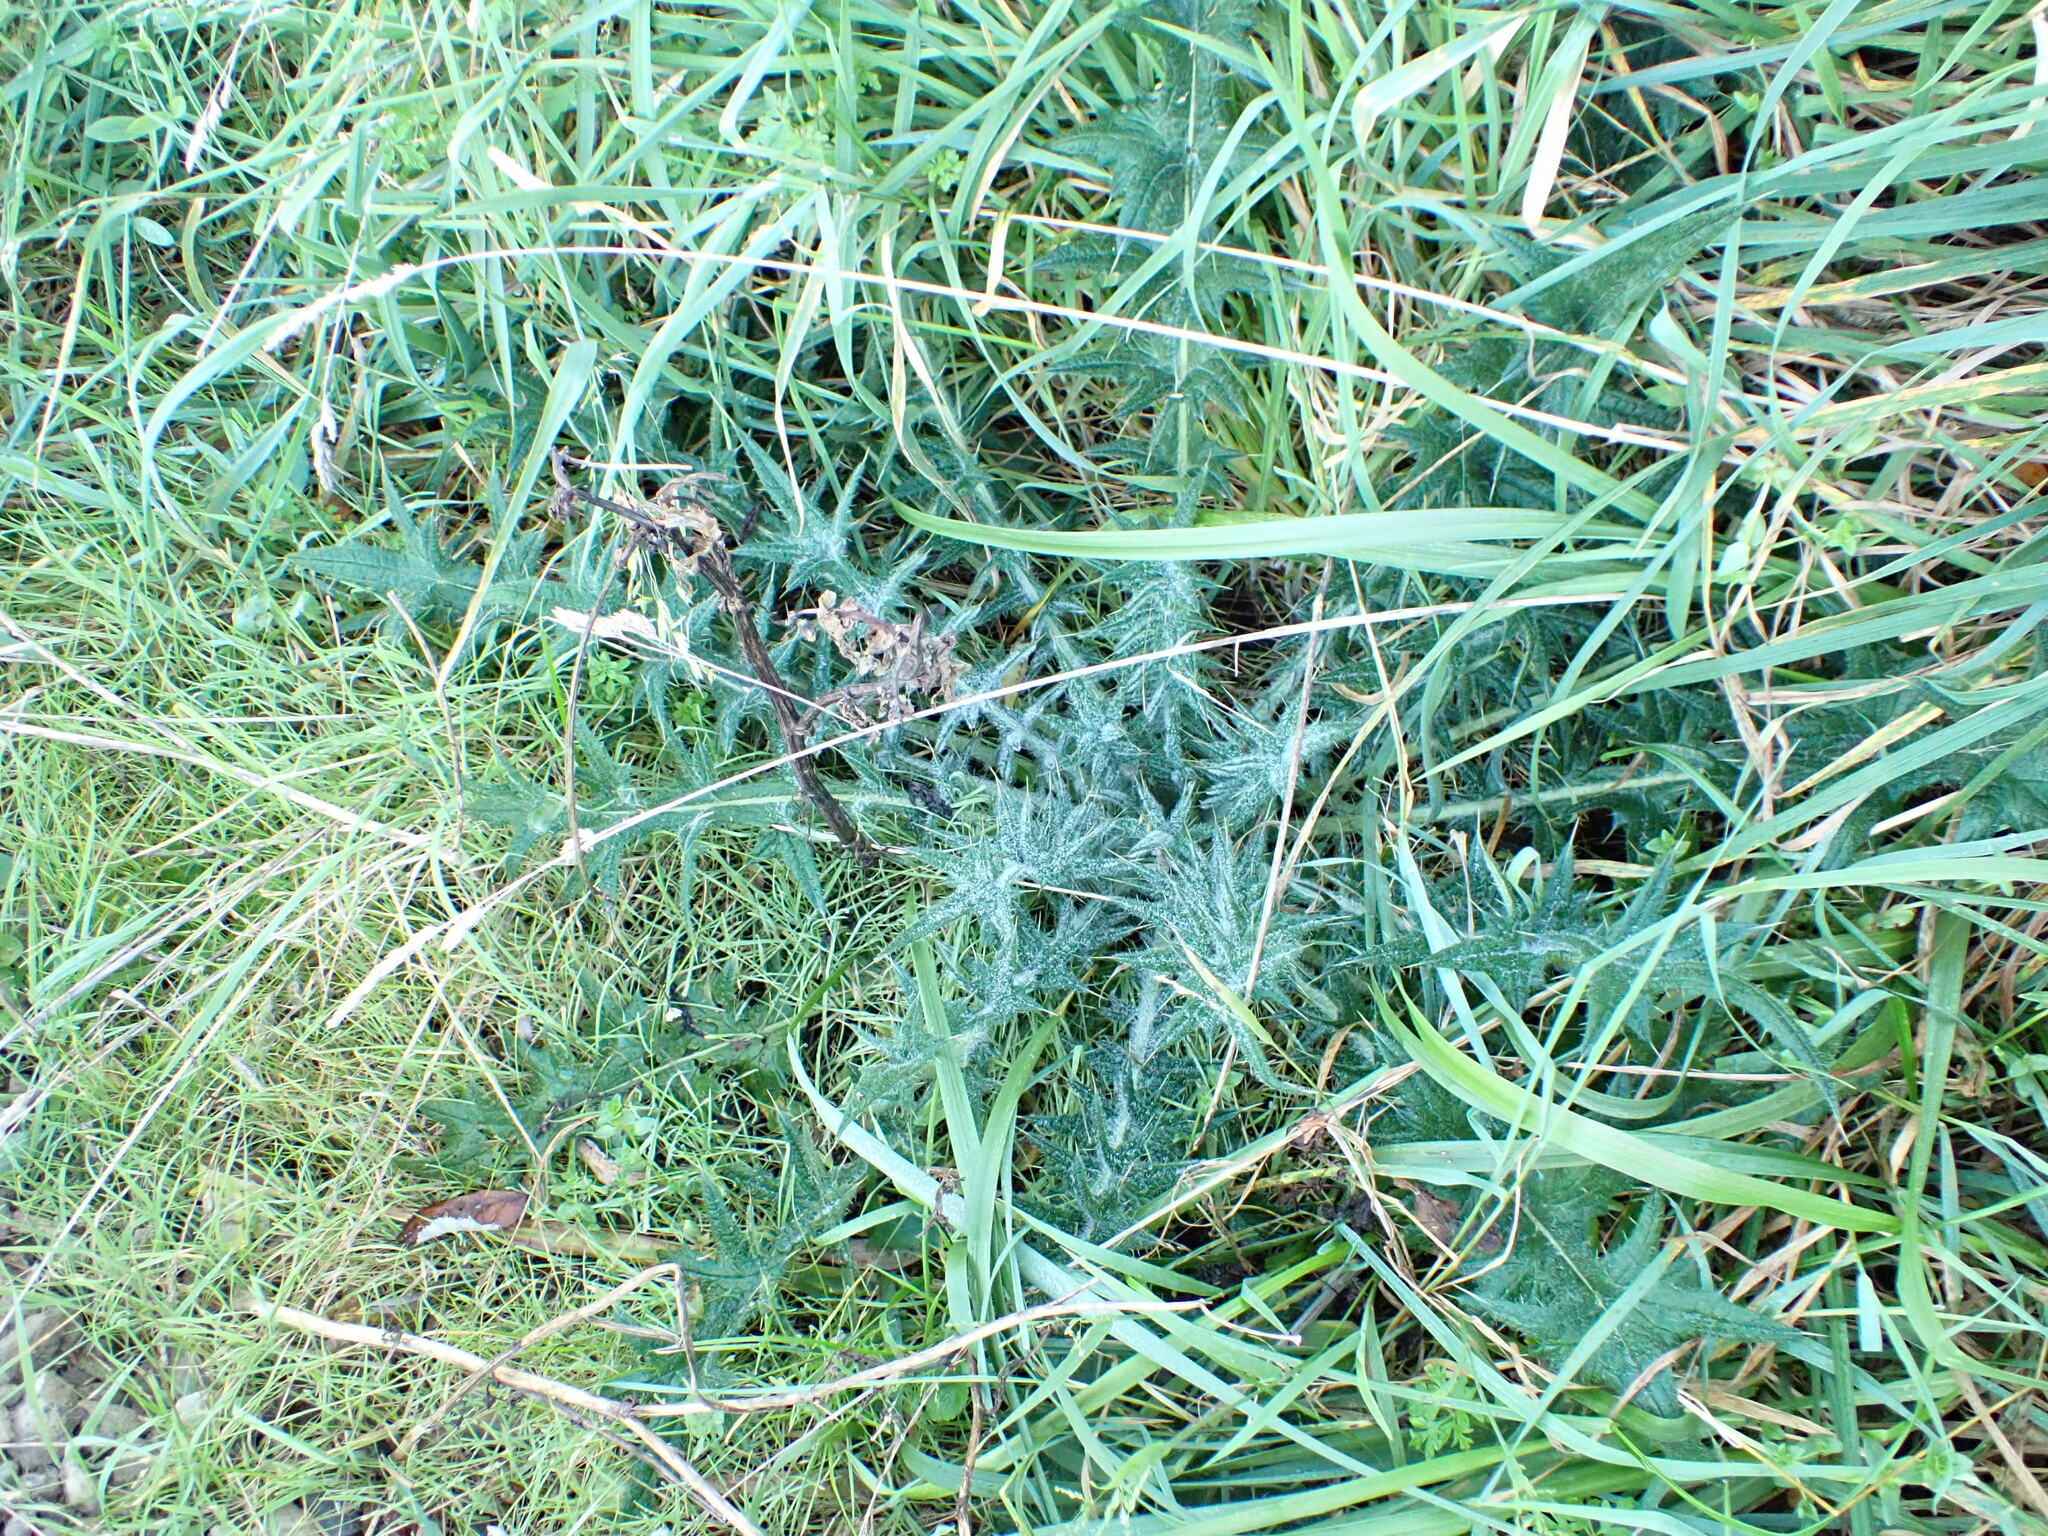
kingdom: Plantae
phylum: Tracheophyta
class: Magnoliopsida
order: Asterales
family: Asteraceae
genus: Cirsium
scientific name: Cirsium vulgare
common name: Bull thistle
